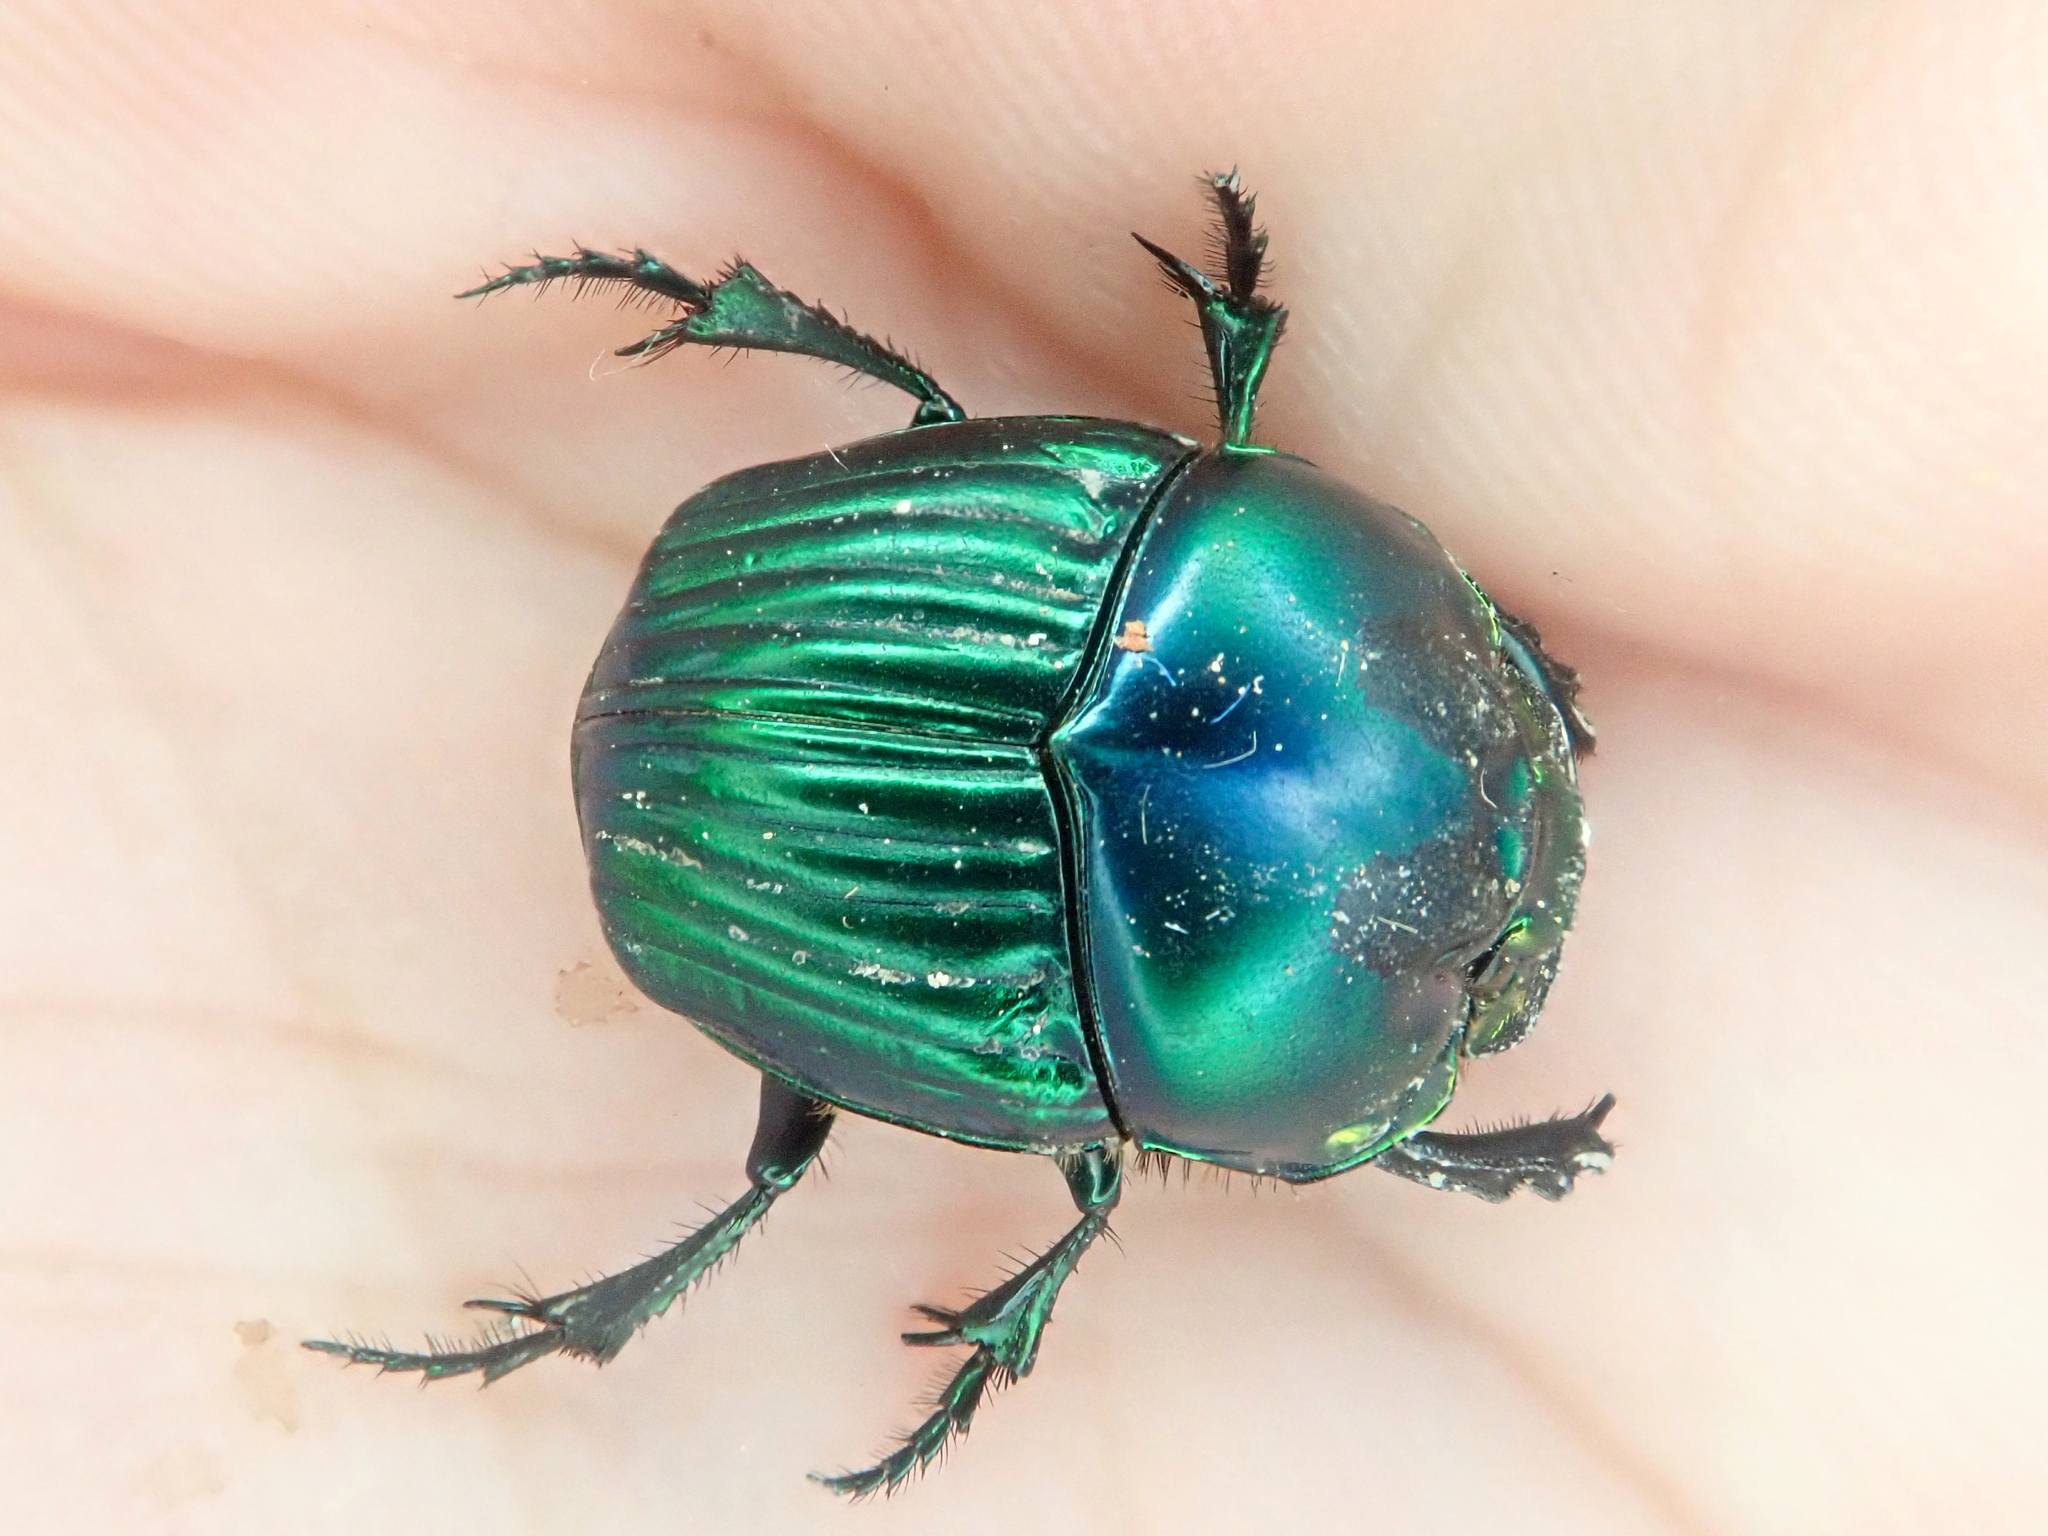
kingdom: Animalia
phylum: Arthropoda
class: Insecta
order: Coleoptera
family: Scarabaeidae
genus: Phanaeus
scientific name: Phanaeus palaeno
